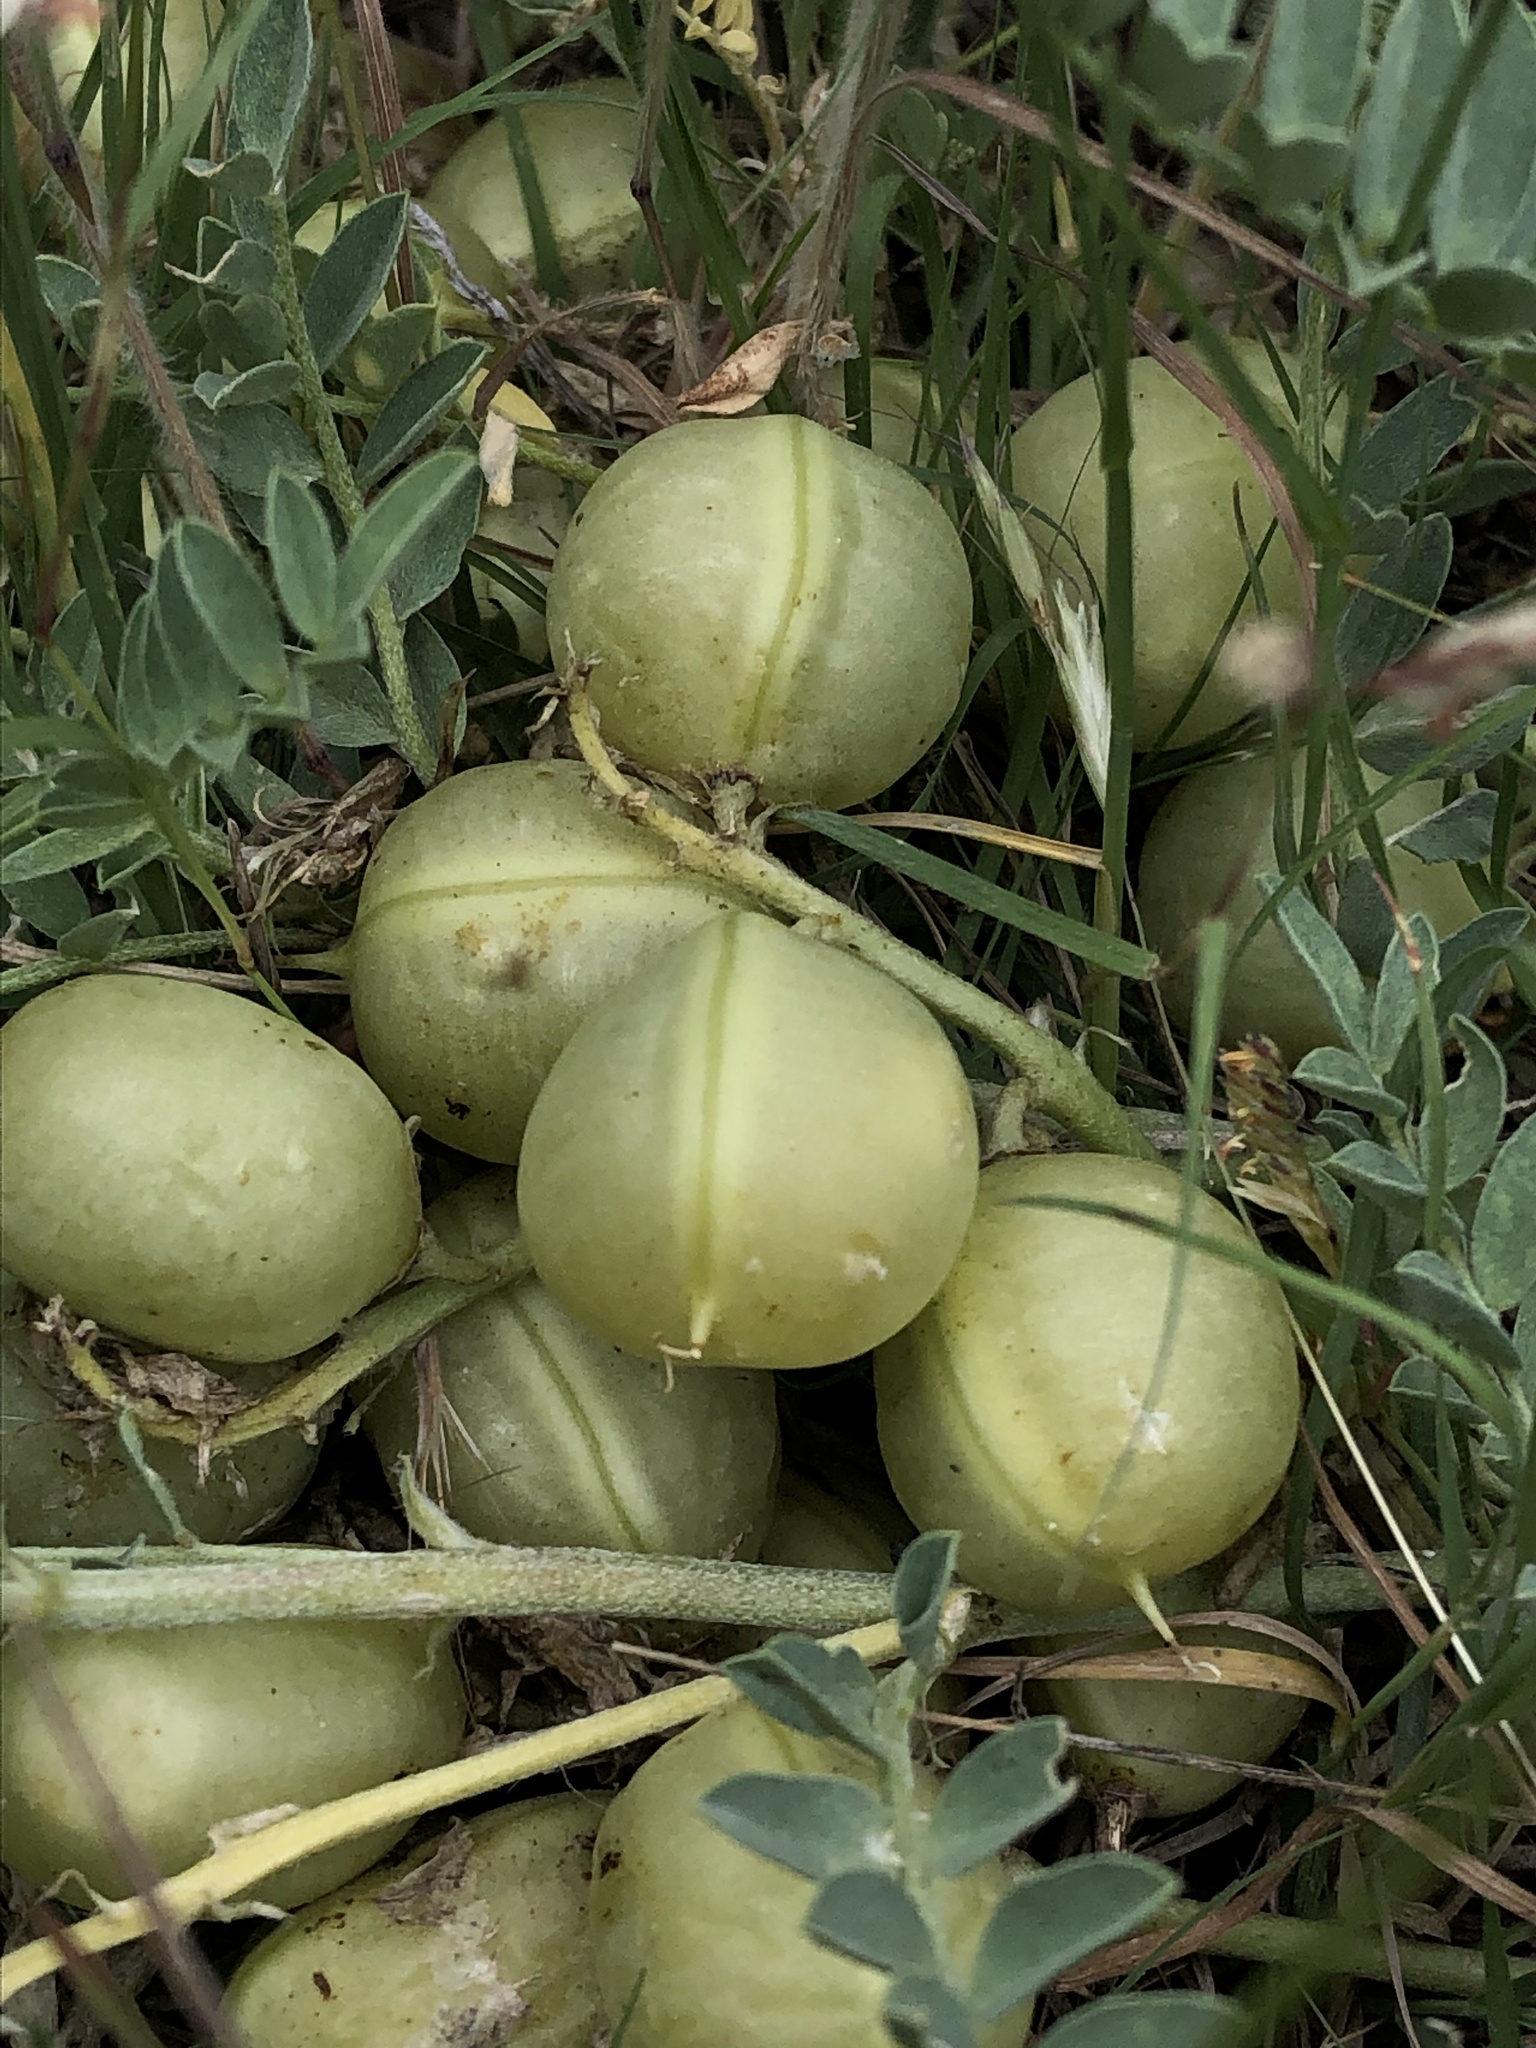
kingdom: Plantae
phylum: Tracheophyta
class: Magnoliopsida
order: Fabales
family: Fabaceae
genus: Astragalus
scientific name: Astragalus crassicarpus
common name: Ground-plum milk-vetch
